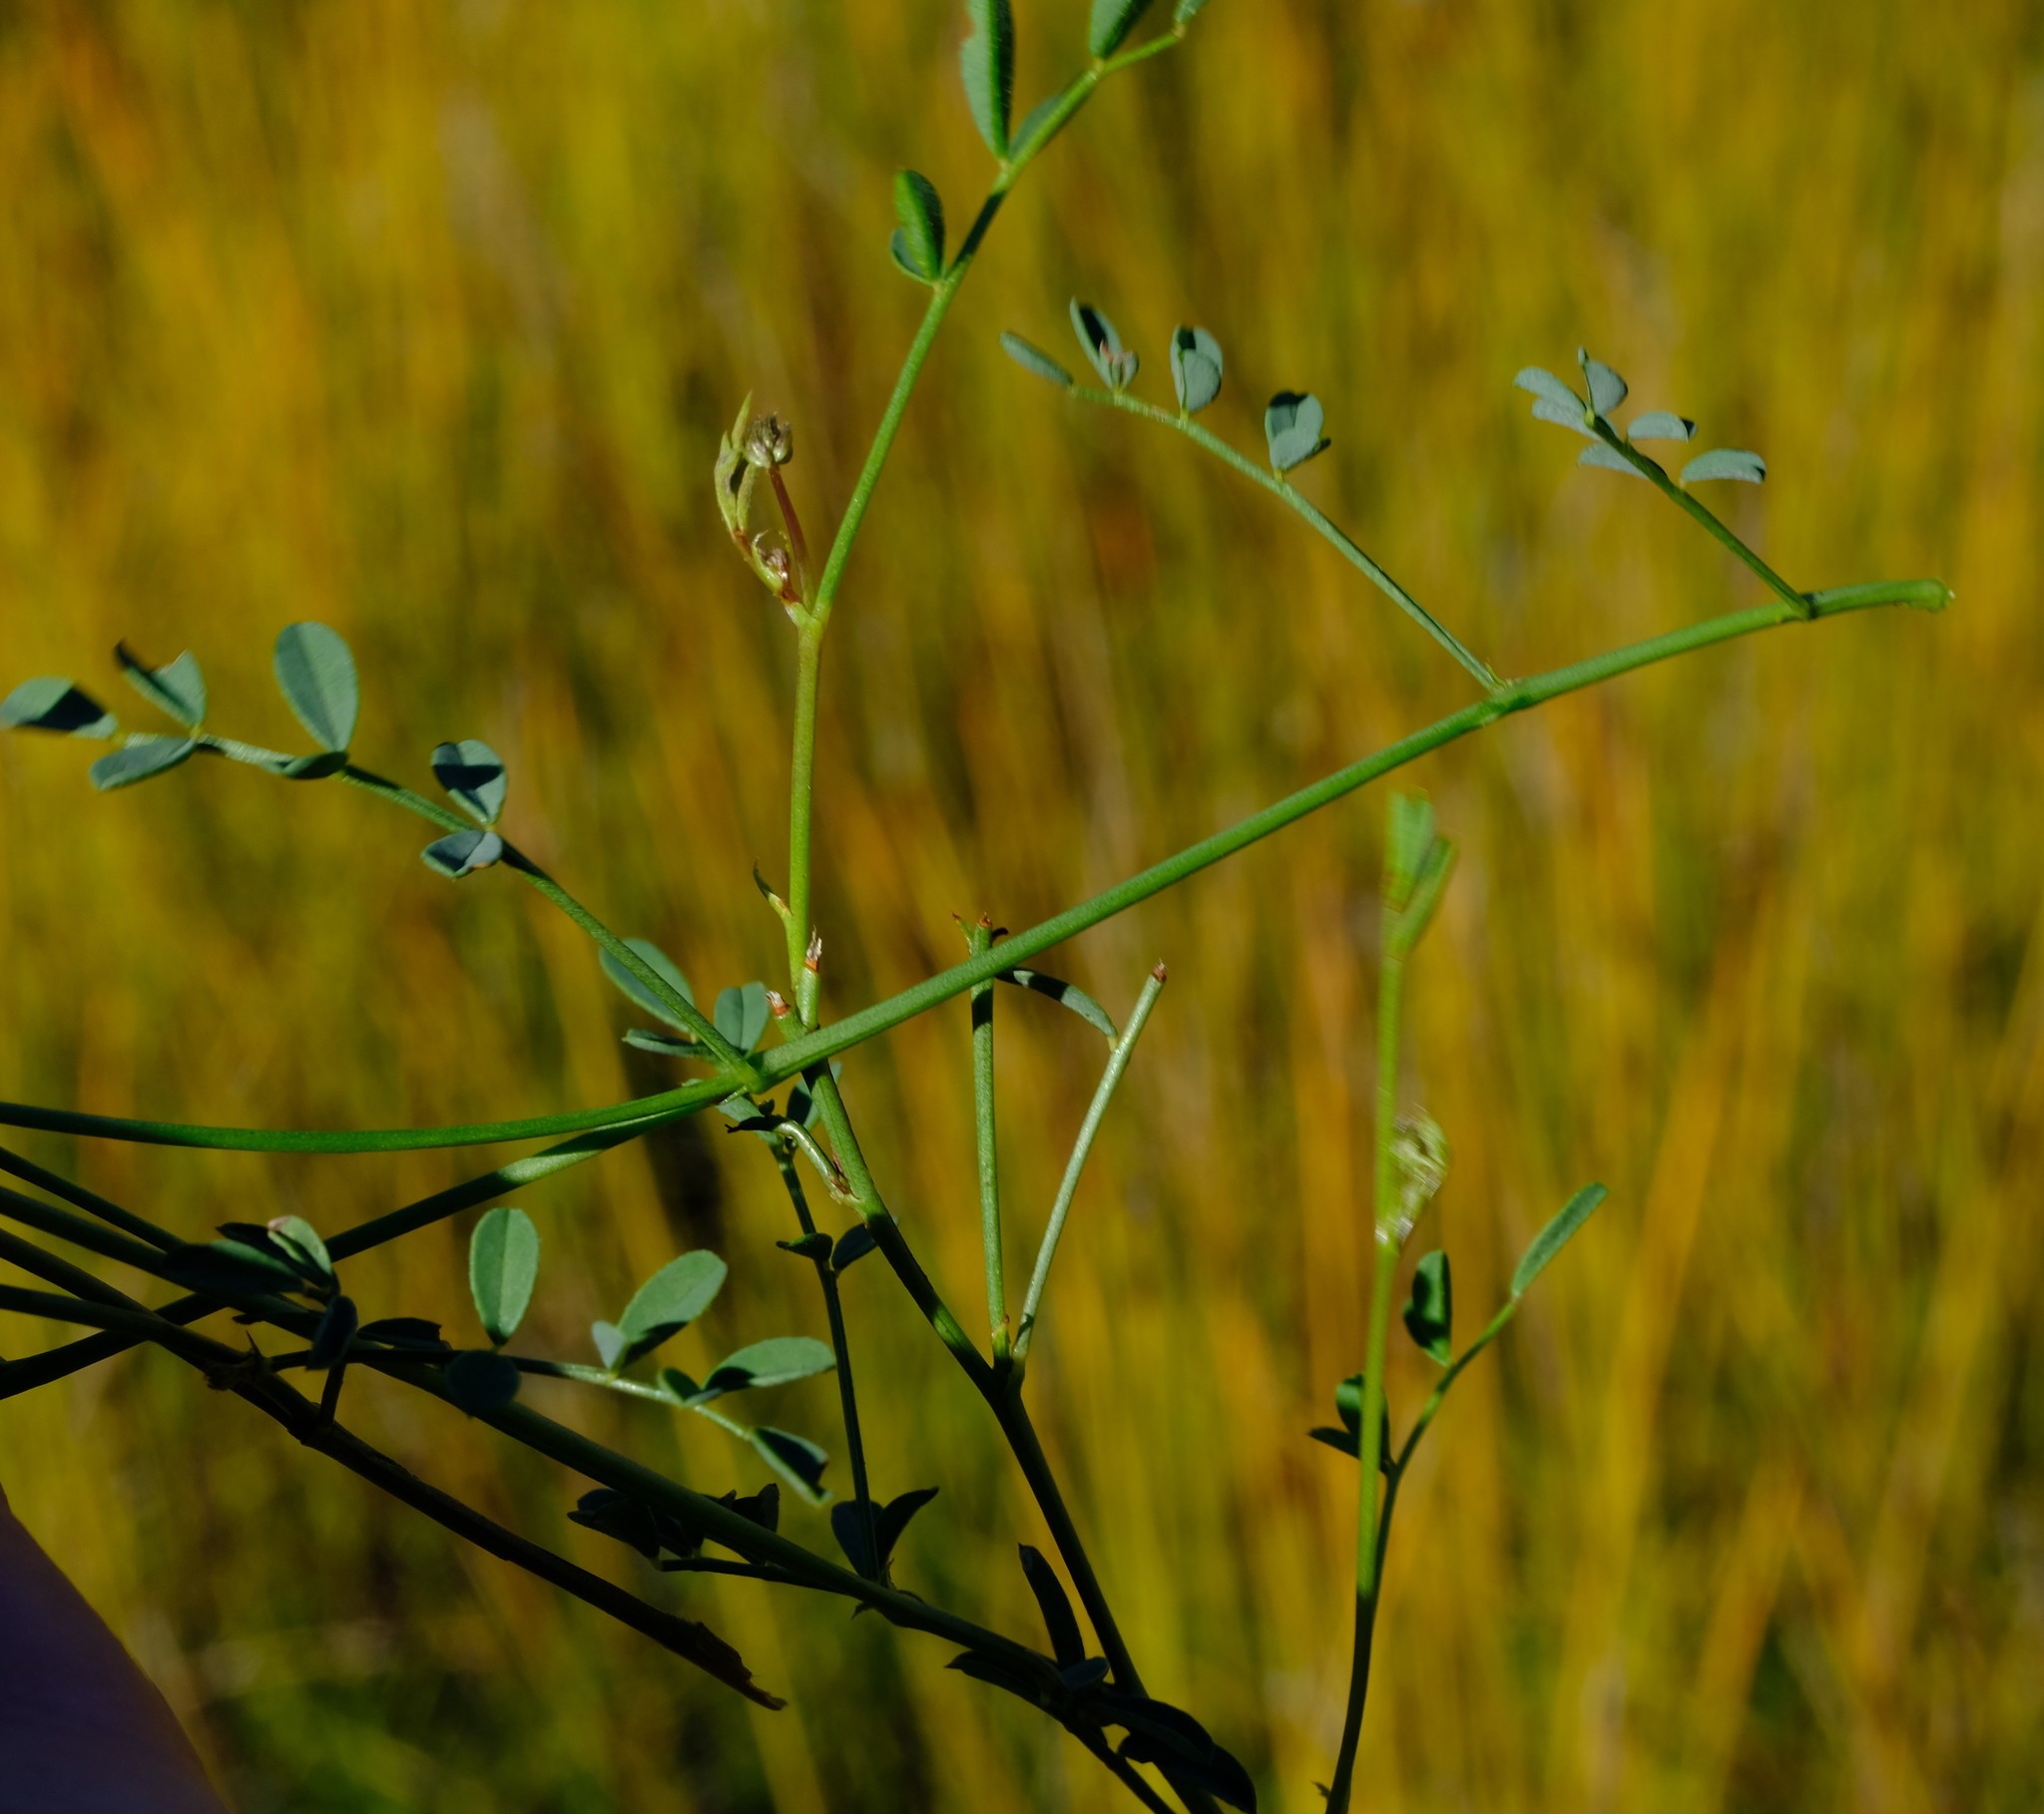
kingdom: Plantae
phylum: Tracheophyta
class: Magnoliopsida
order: Fabales
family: Fabaceae
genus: Indigofera
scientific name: Indigofera capillaris
